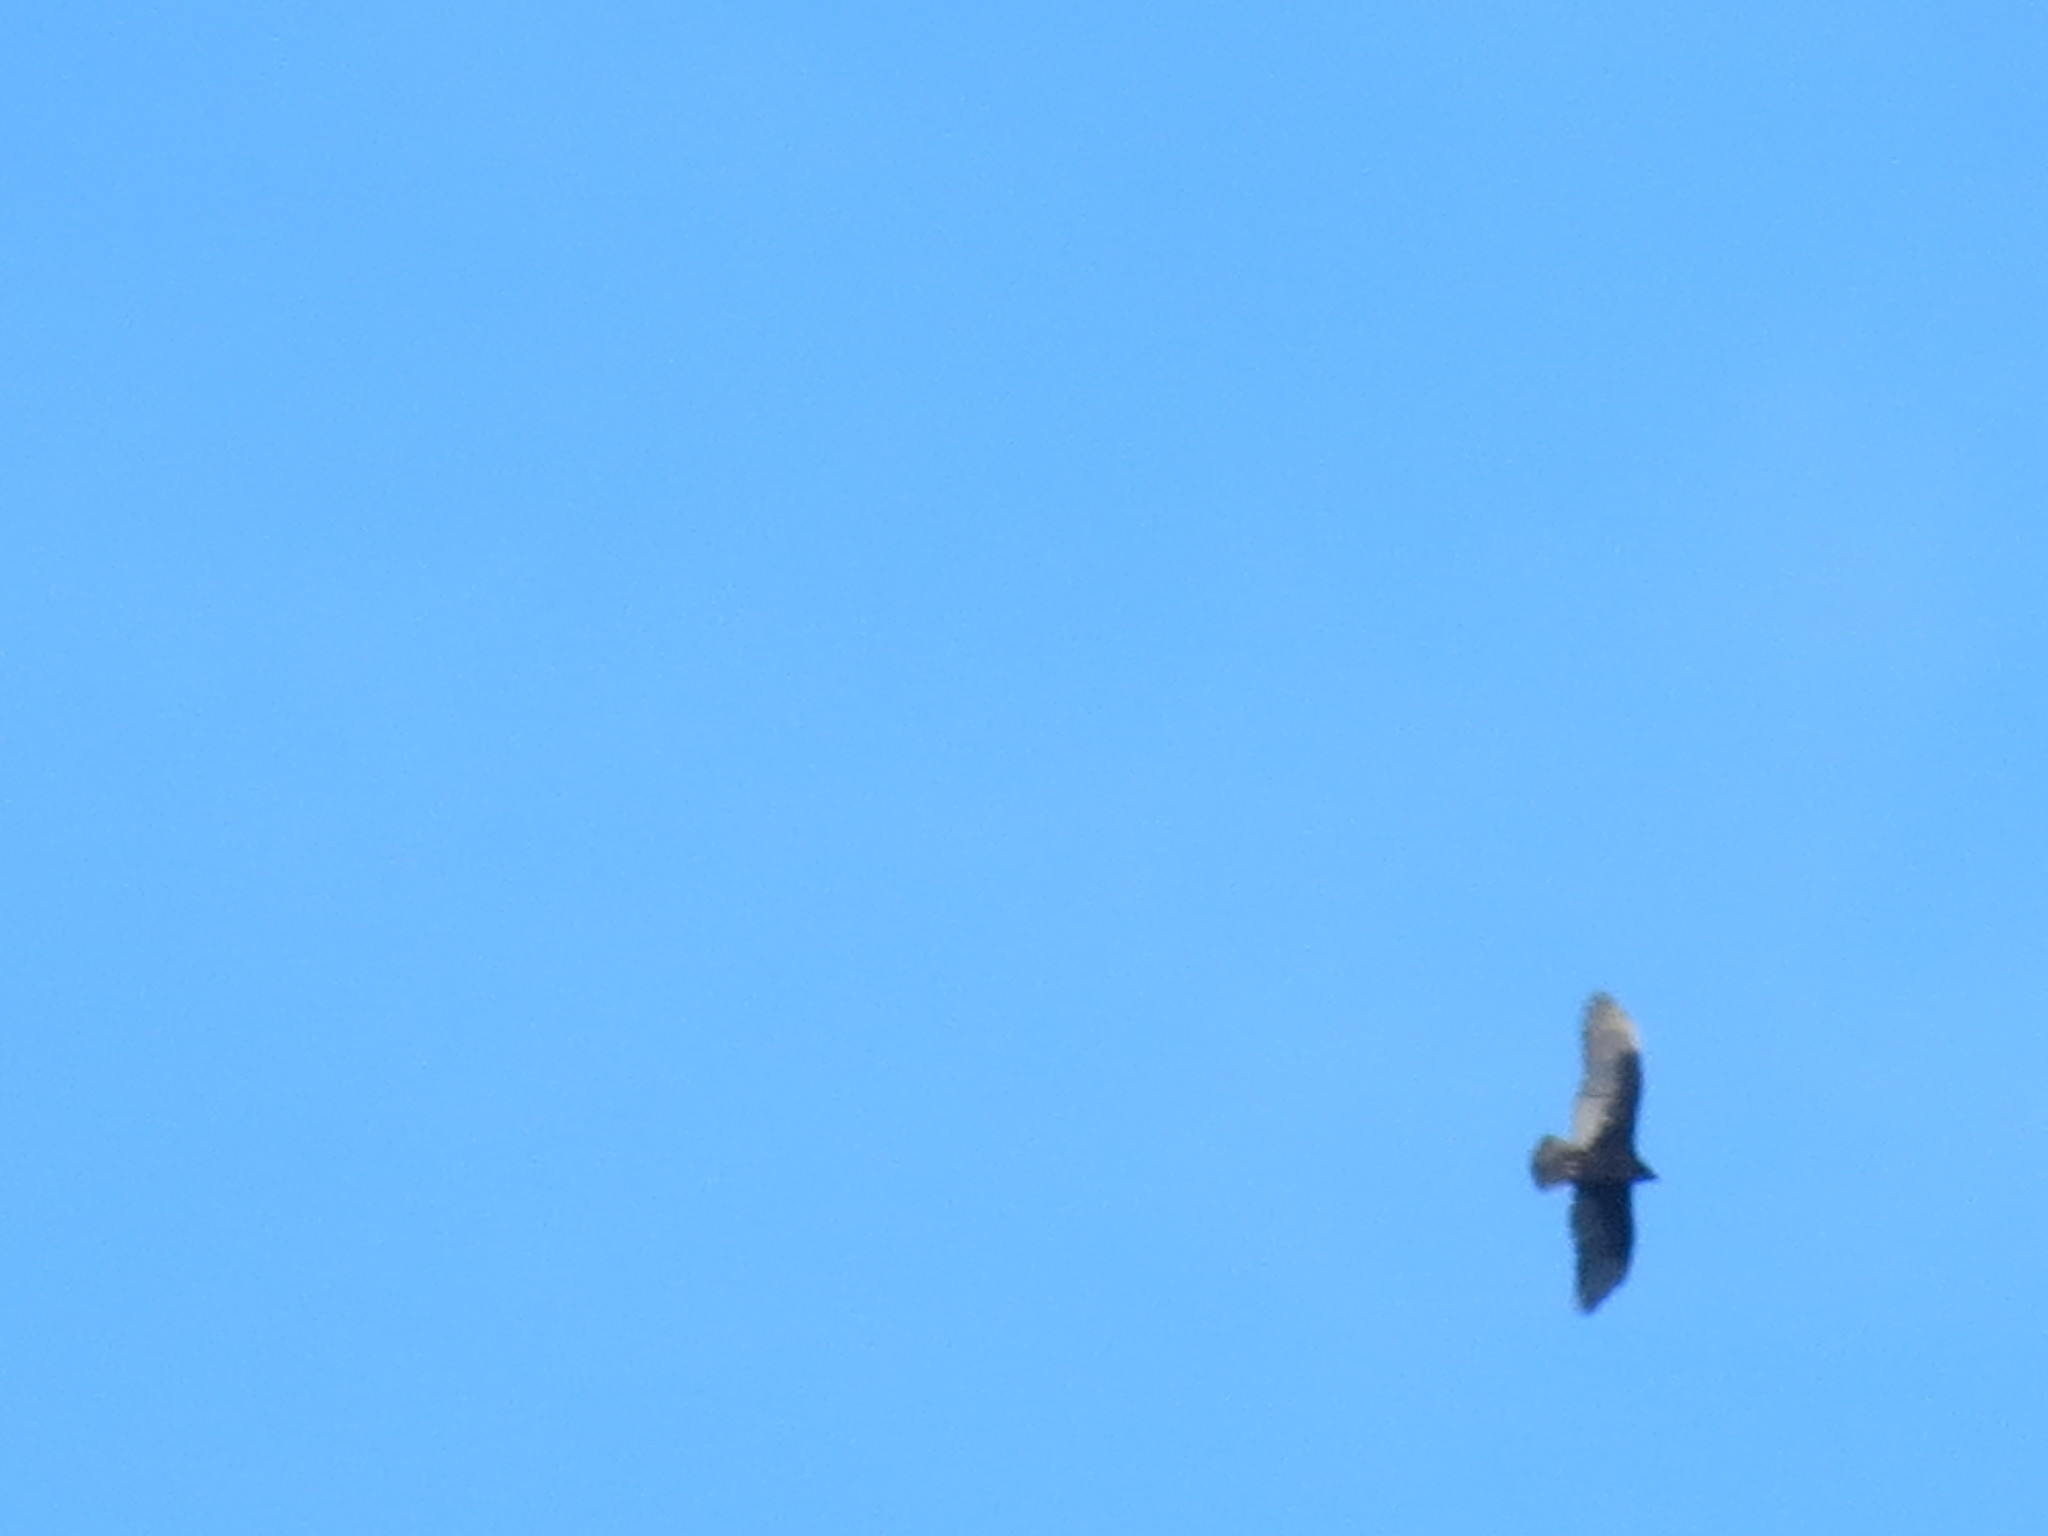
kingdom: Animalia
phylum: Chordata
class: Aves
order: Accipitriformes
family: Cathartidae
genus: Cathartes
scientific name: Cathartes aura
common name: Turkey vulture
